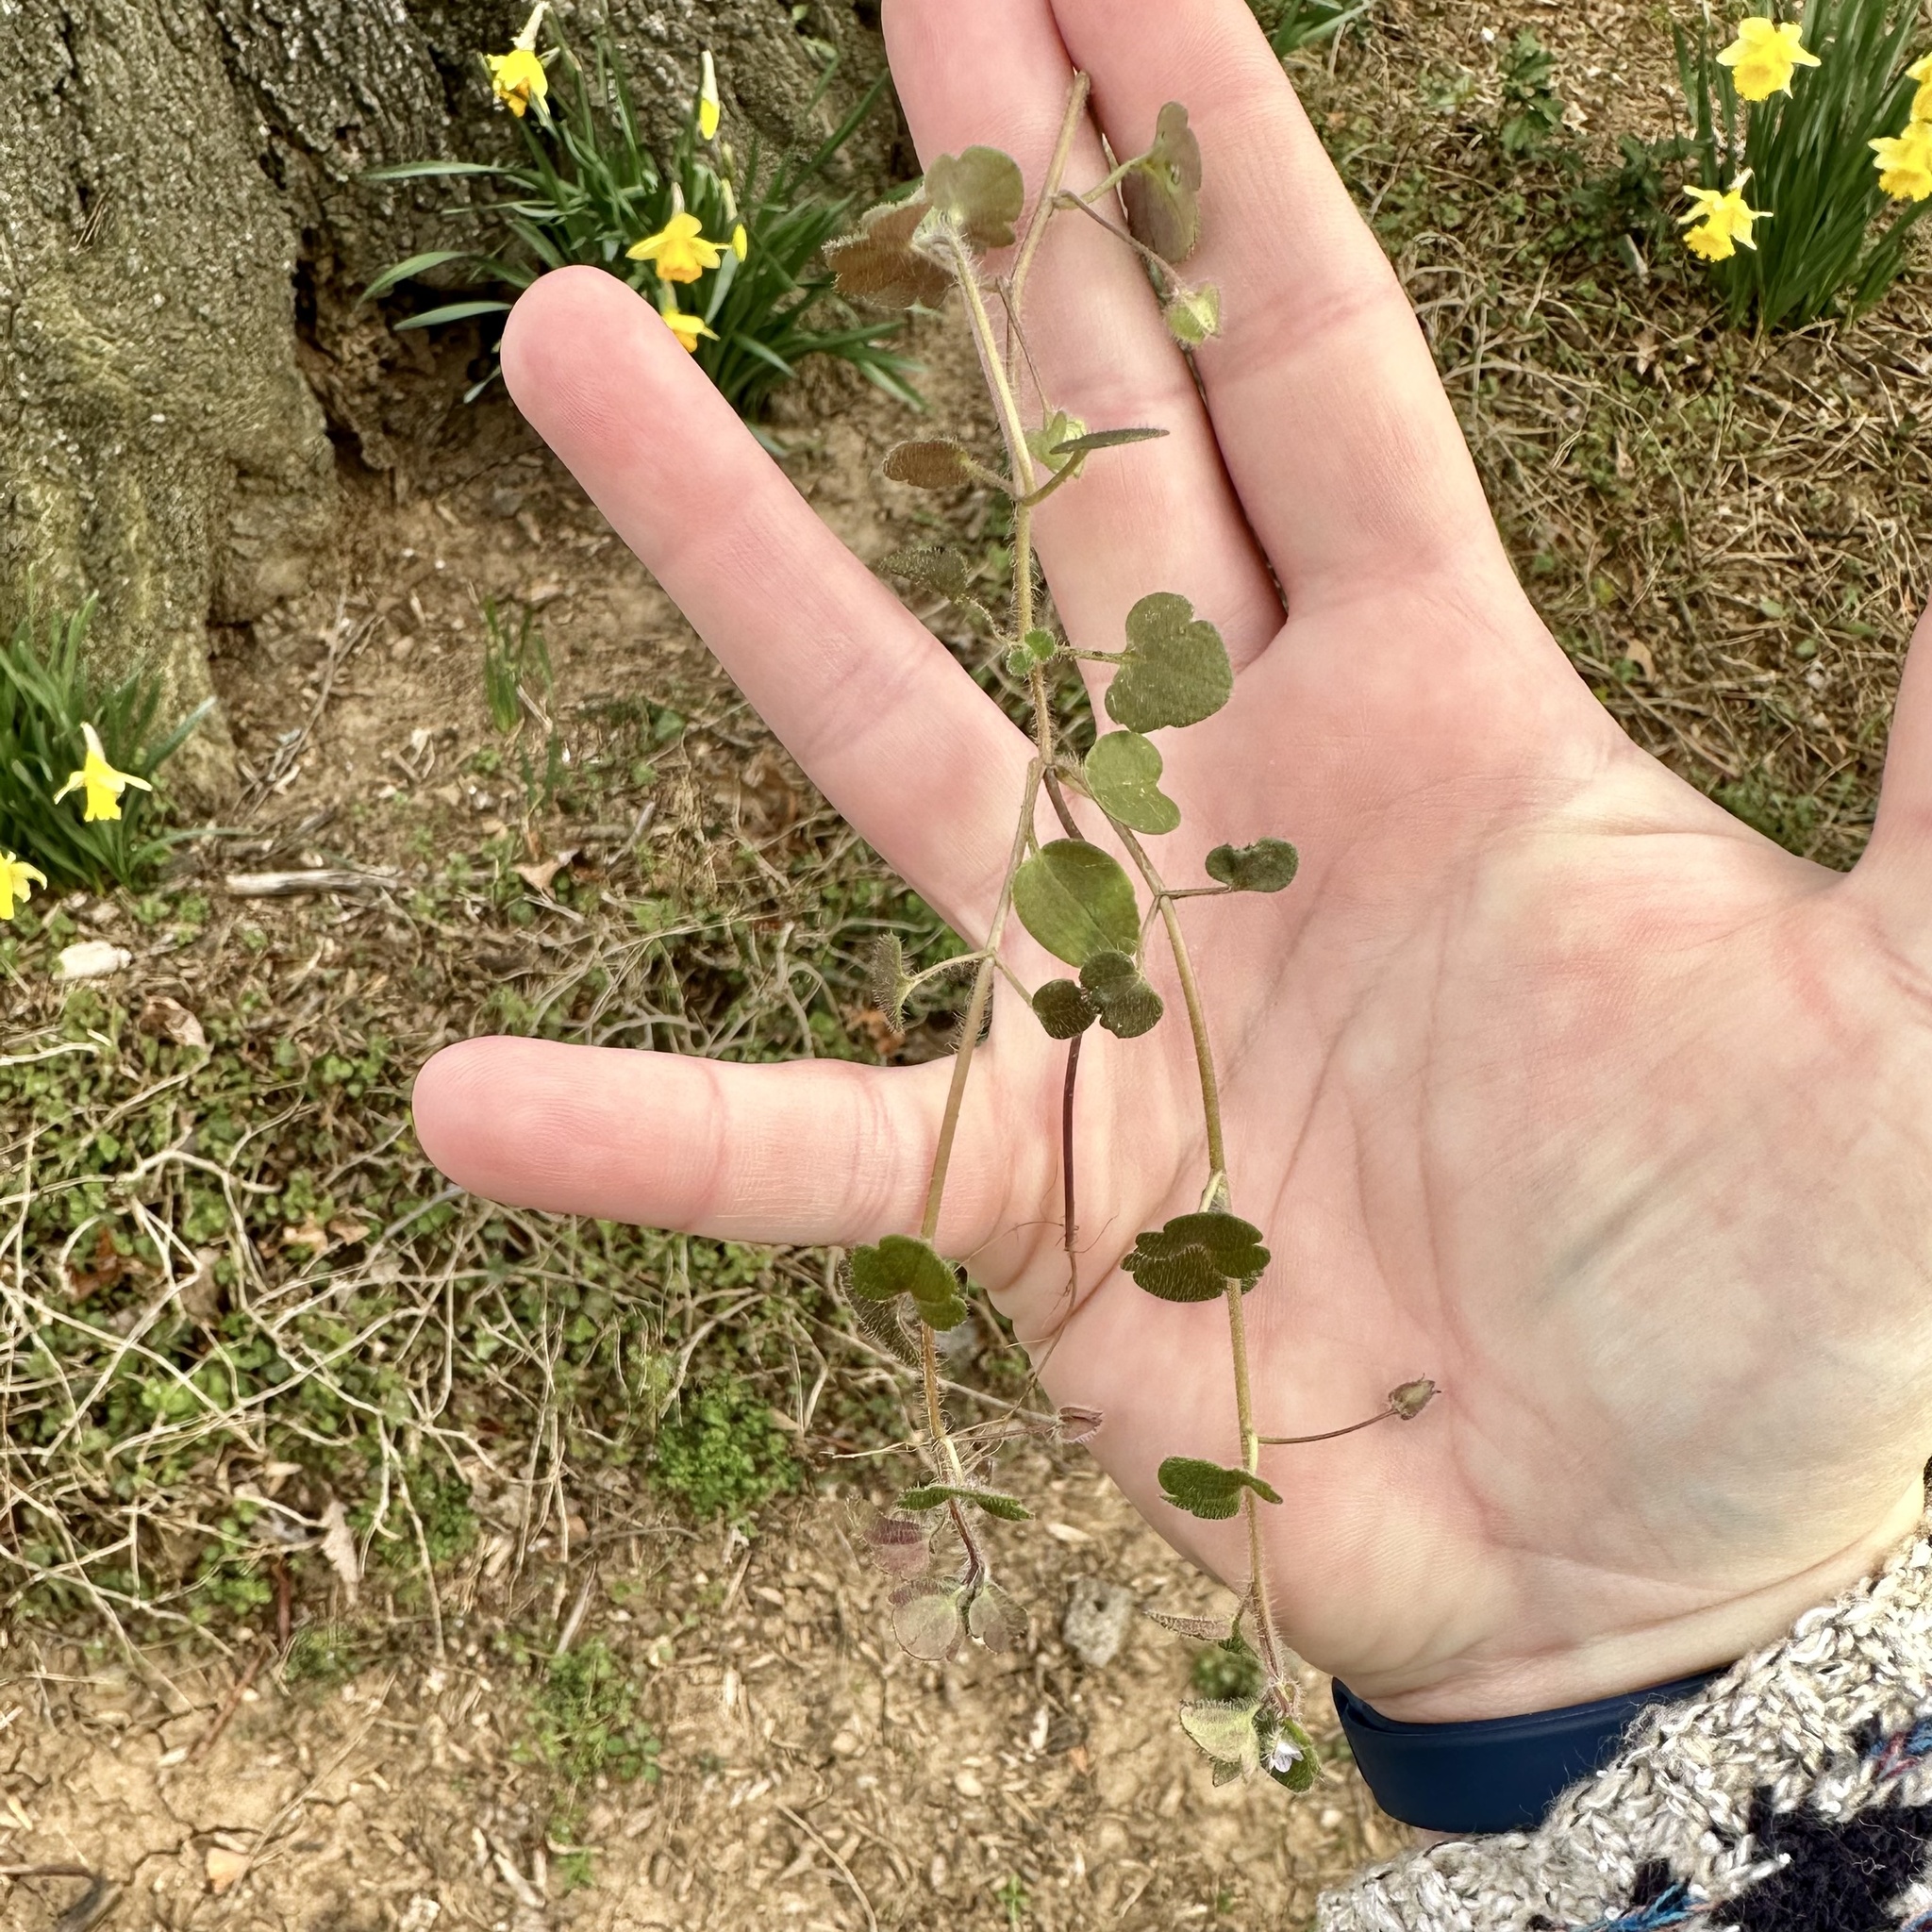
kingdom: Plantae
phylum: Tracheophyta
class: Magnoliopsida
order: Lamiales
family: Plantaginaceae
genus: Veronica
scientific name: Veronica sublobata
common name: False ivy-leaved speedwell
